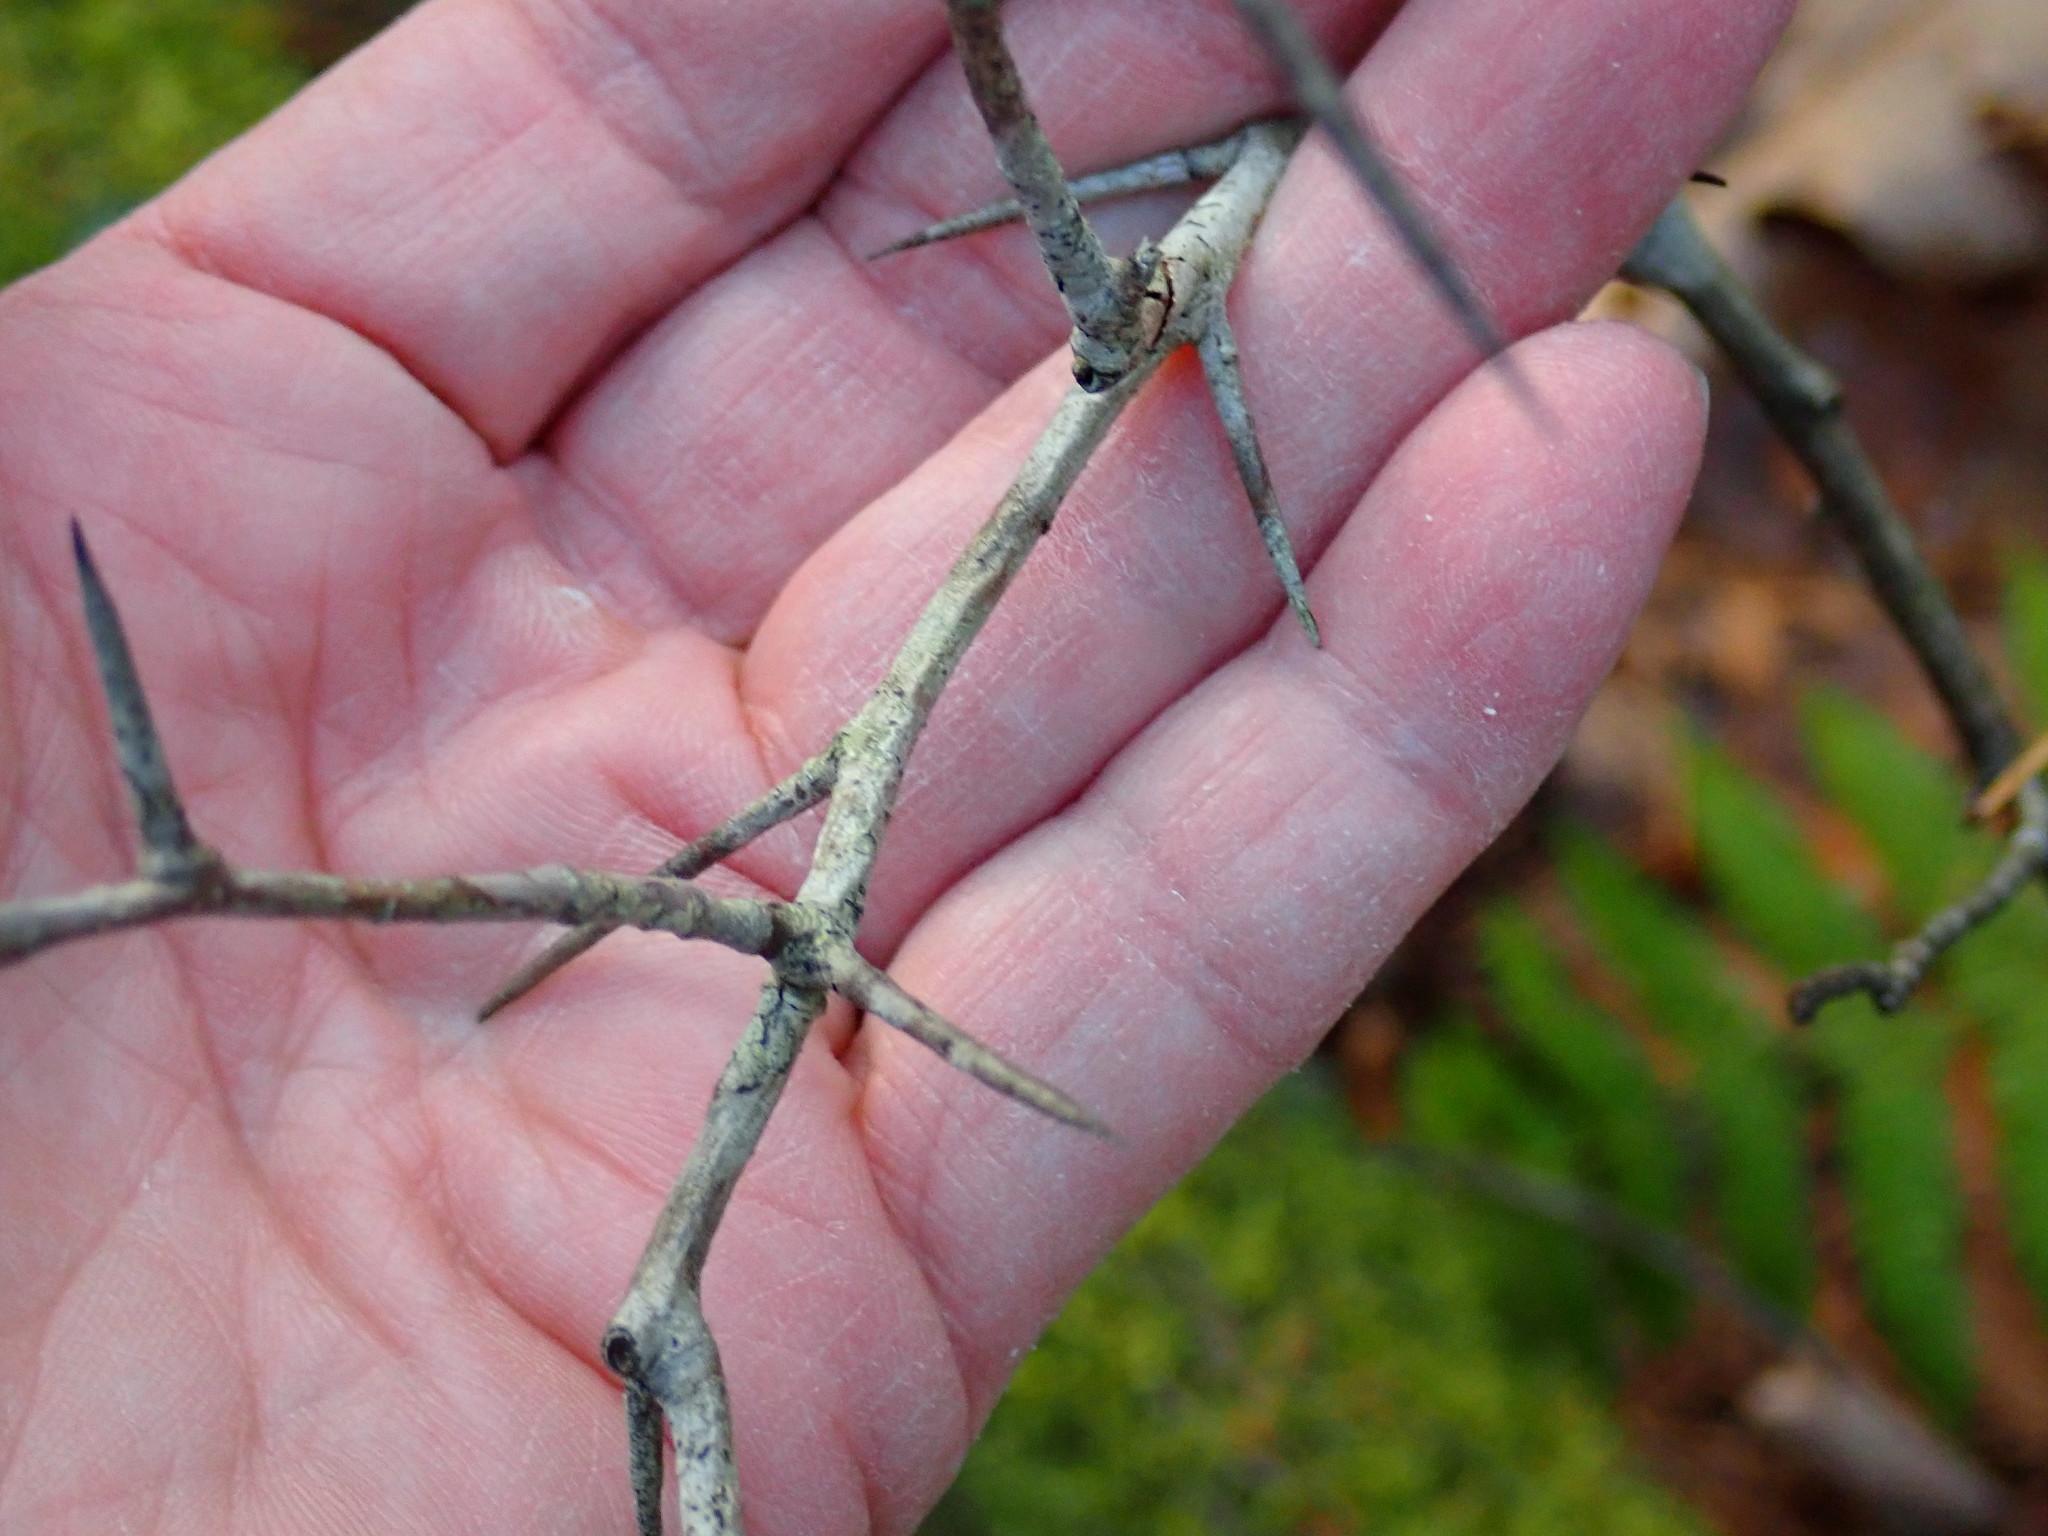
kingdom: Plantae
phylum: Tracheophyta
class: Magnoliopsida
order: Rosales
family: Rosaceae
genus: Crataegus
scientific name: Crataegus
